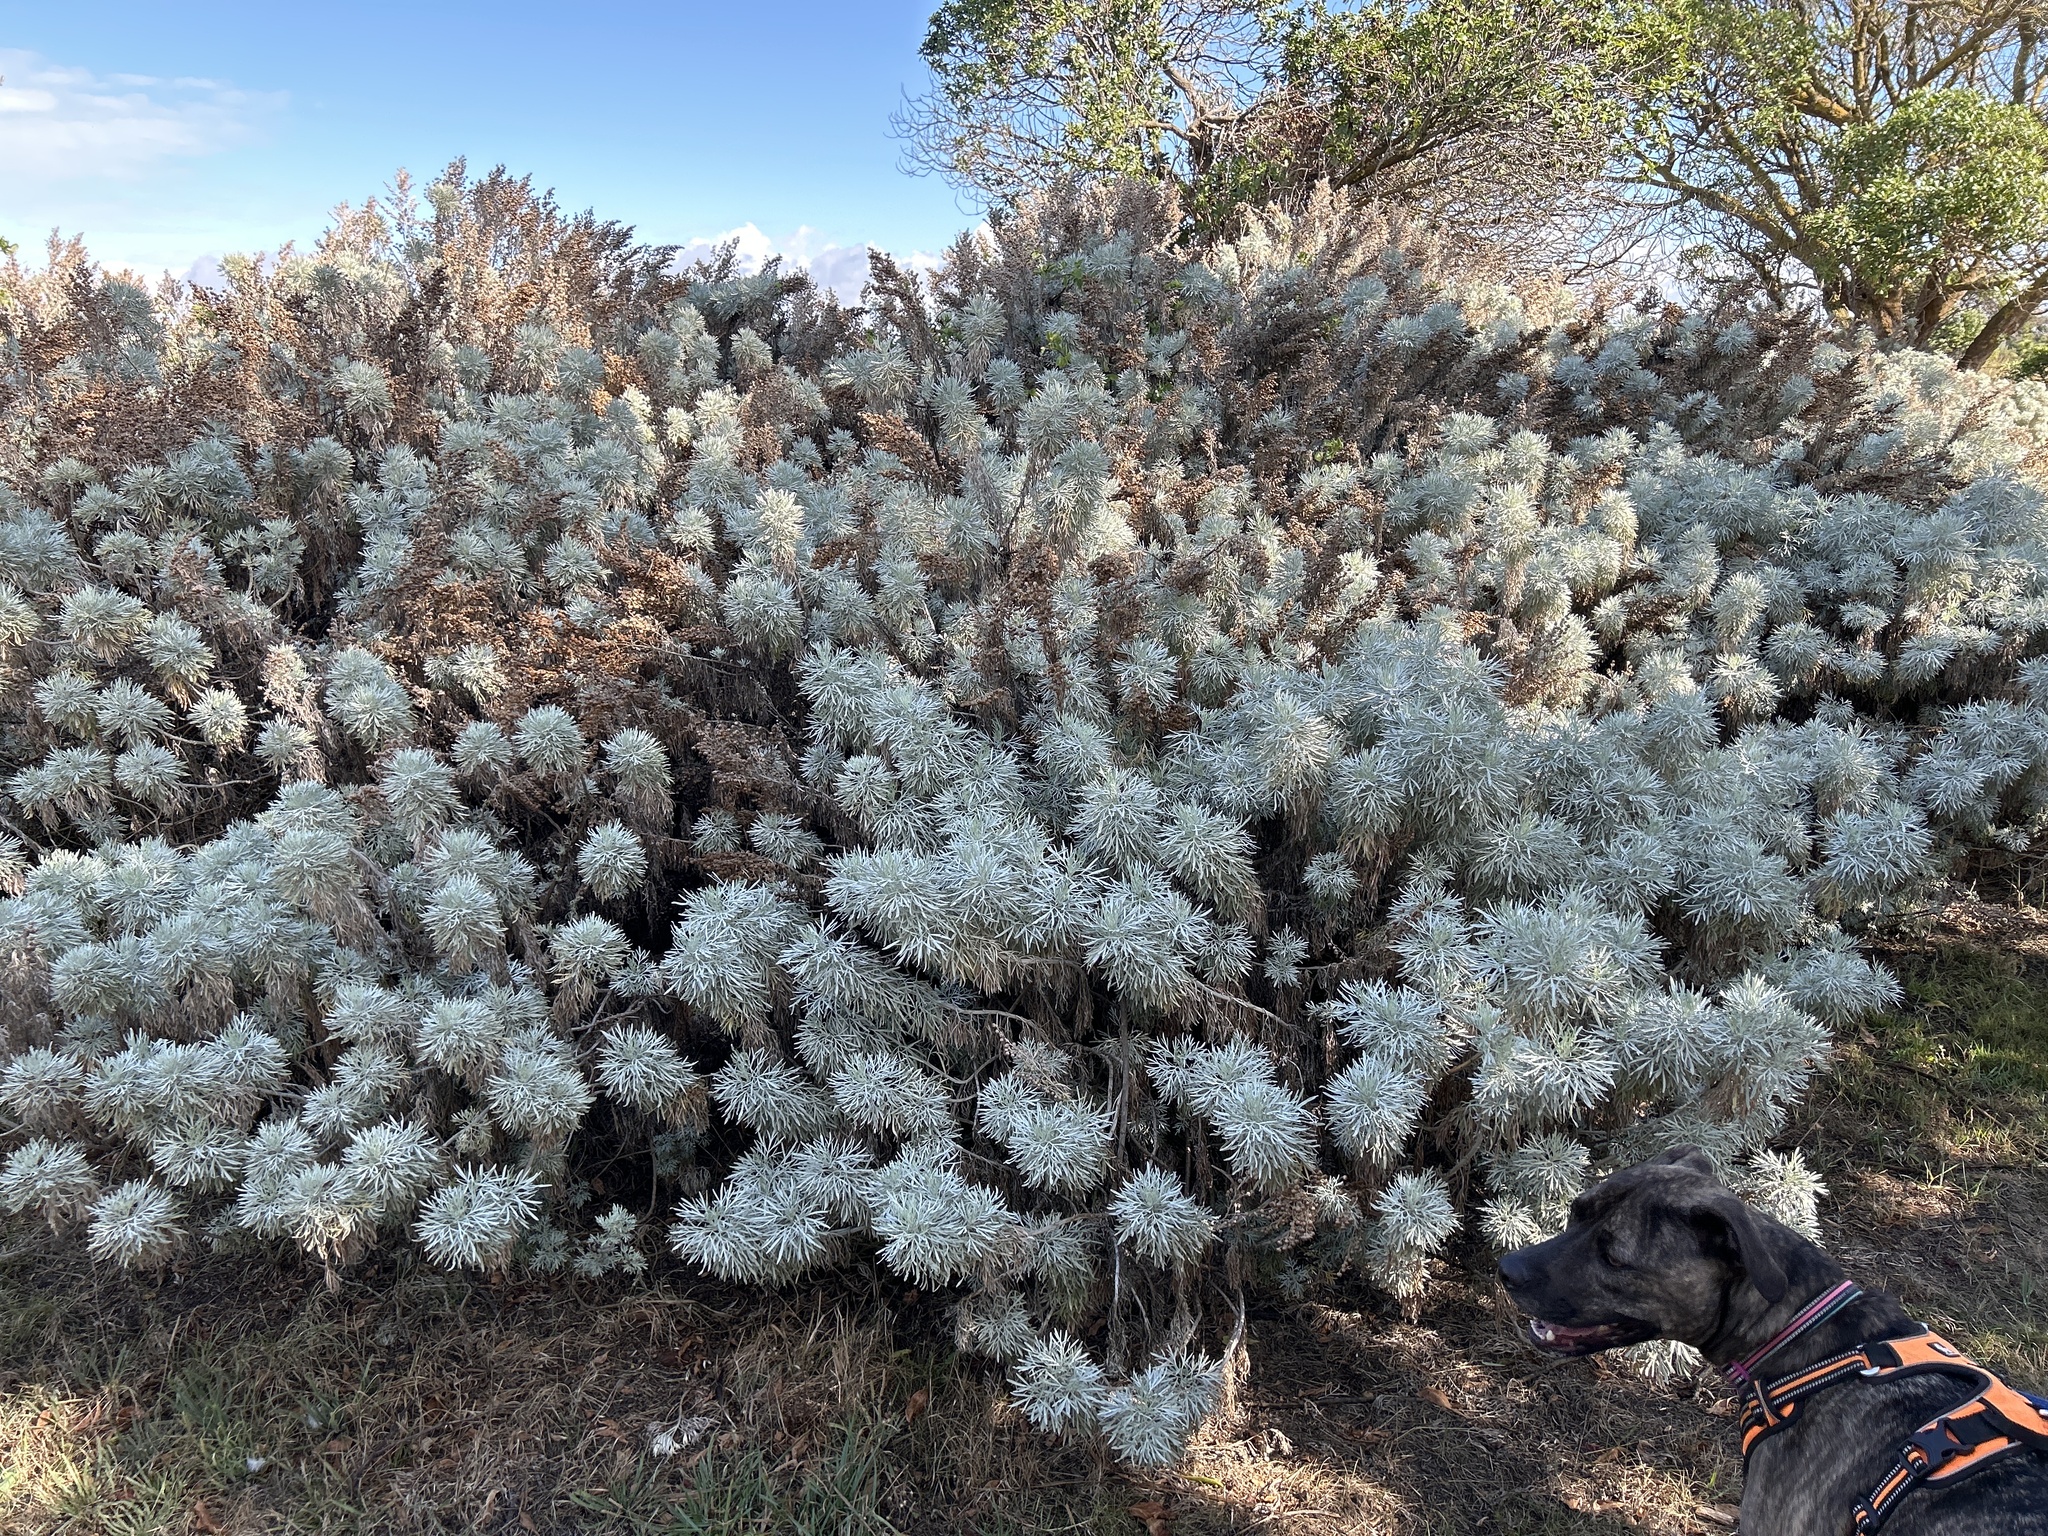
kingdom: Plantae
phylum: Tracheophyta
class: Magnoliopsida
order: Asterales
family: Asteraceae
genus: Artemisia
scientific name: Artemisia arborescens
